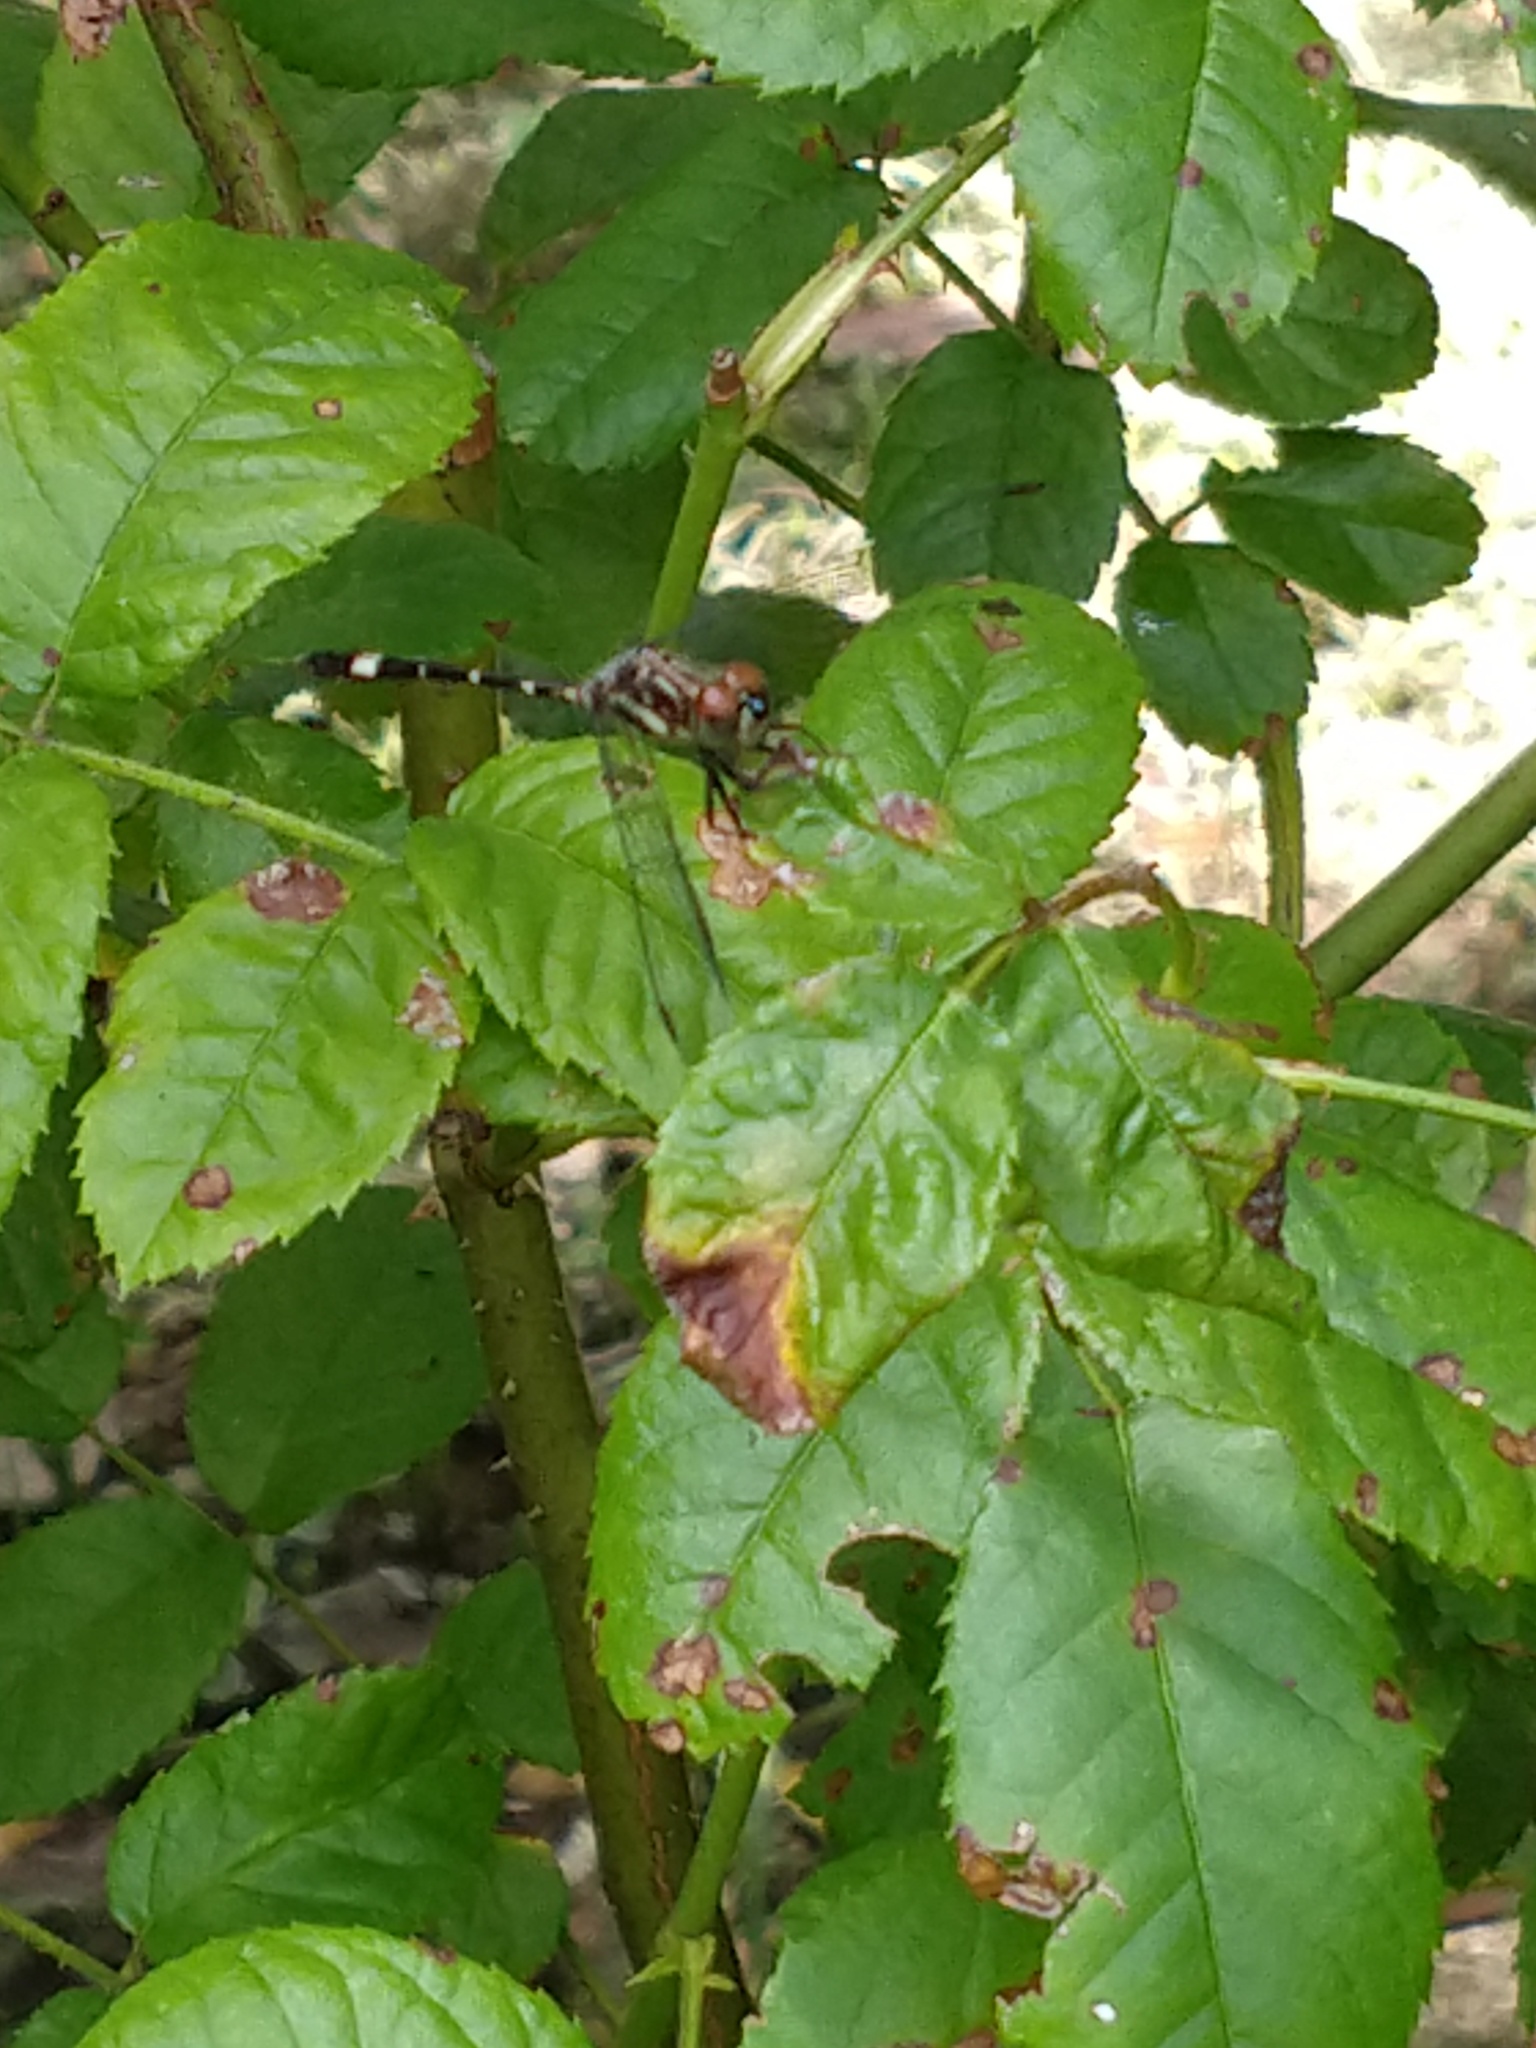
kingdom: Animalia
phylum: Arthropoda
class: Insecta
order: Odonata
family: Libellulidae
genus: Micrathyria
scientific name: Micrathyria hypodidyma
